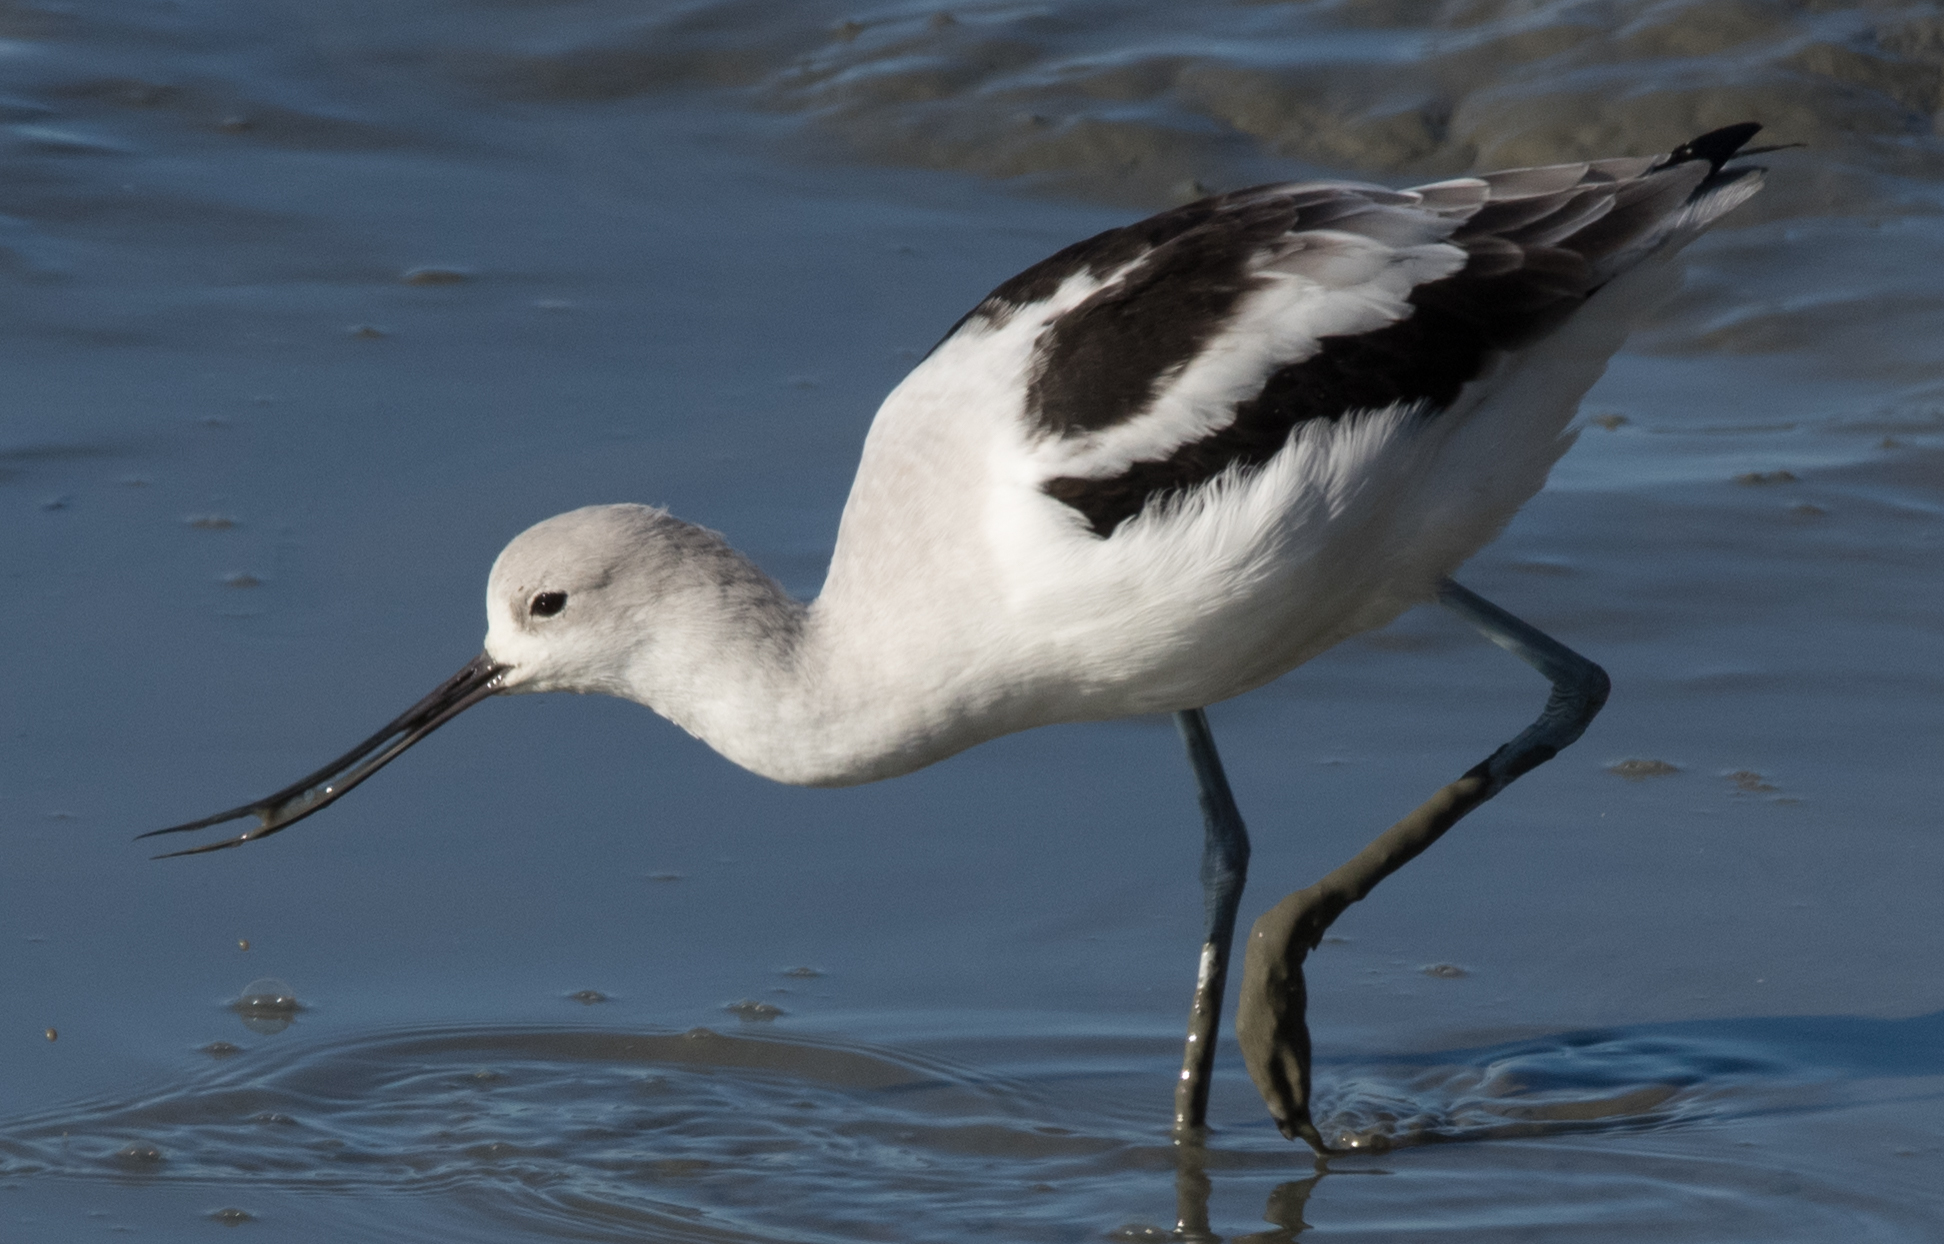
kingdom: Animalia
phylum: Chordata
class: Aves
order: Charadriiformes
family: Recurvirostridae
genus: Recurvirostra
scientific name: Recurvirostra americana
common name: American avocet
